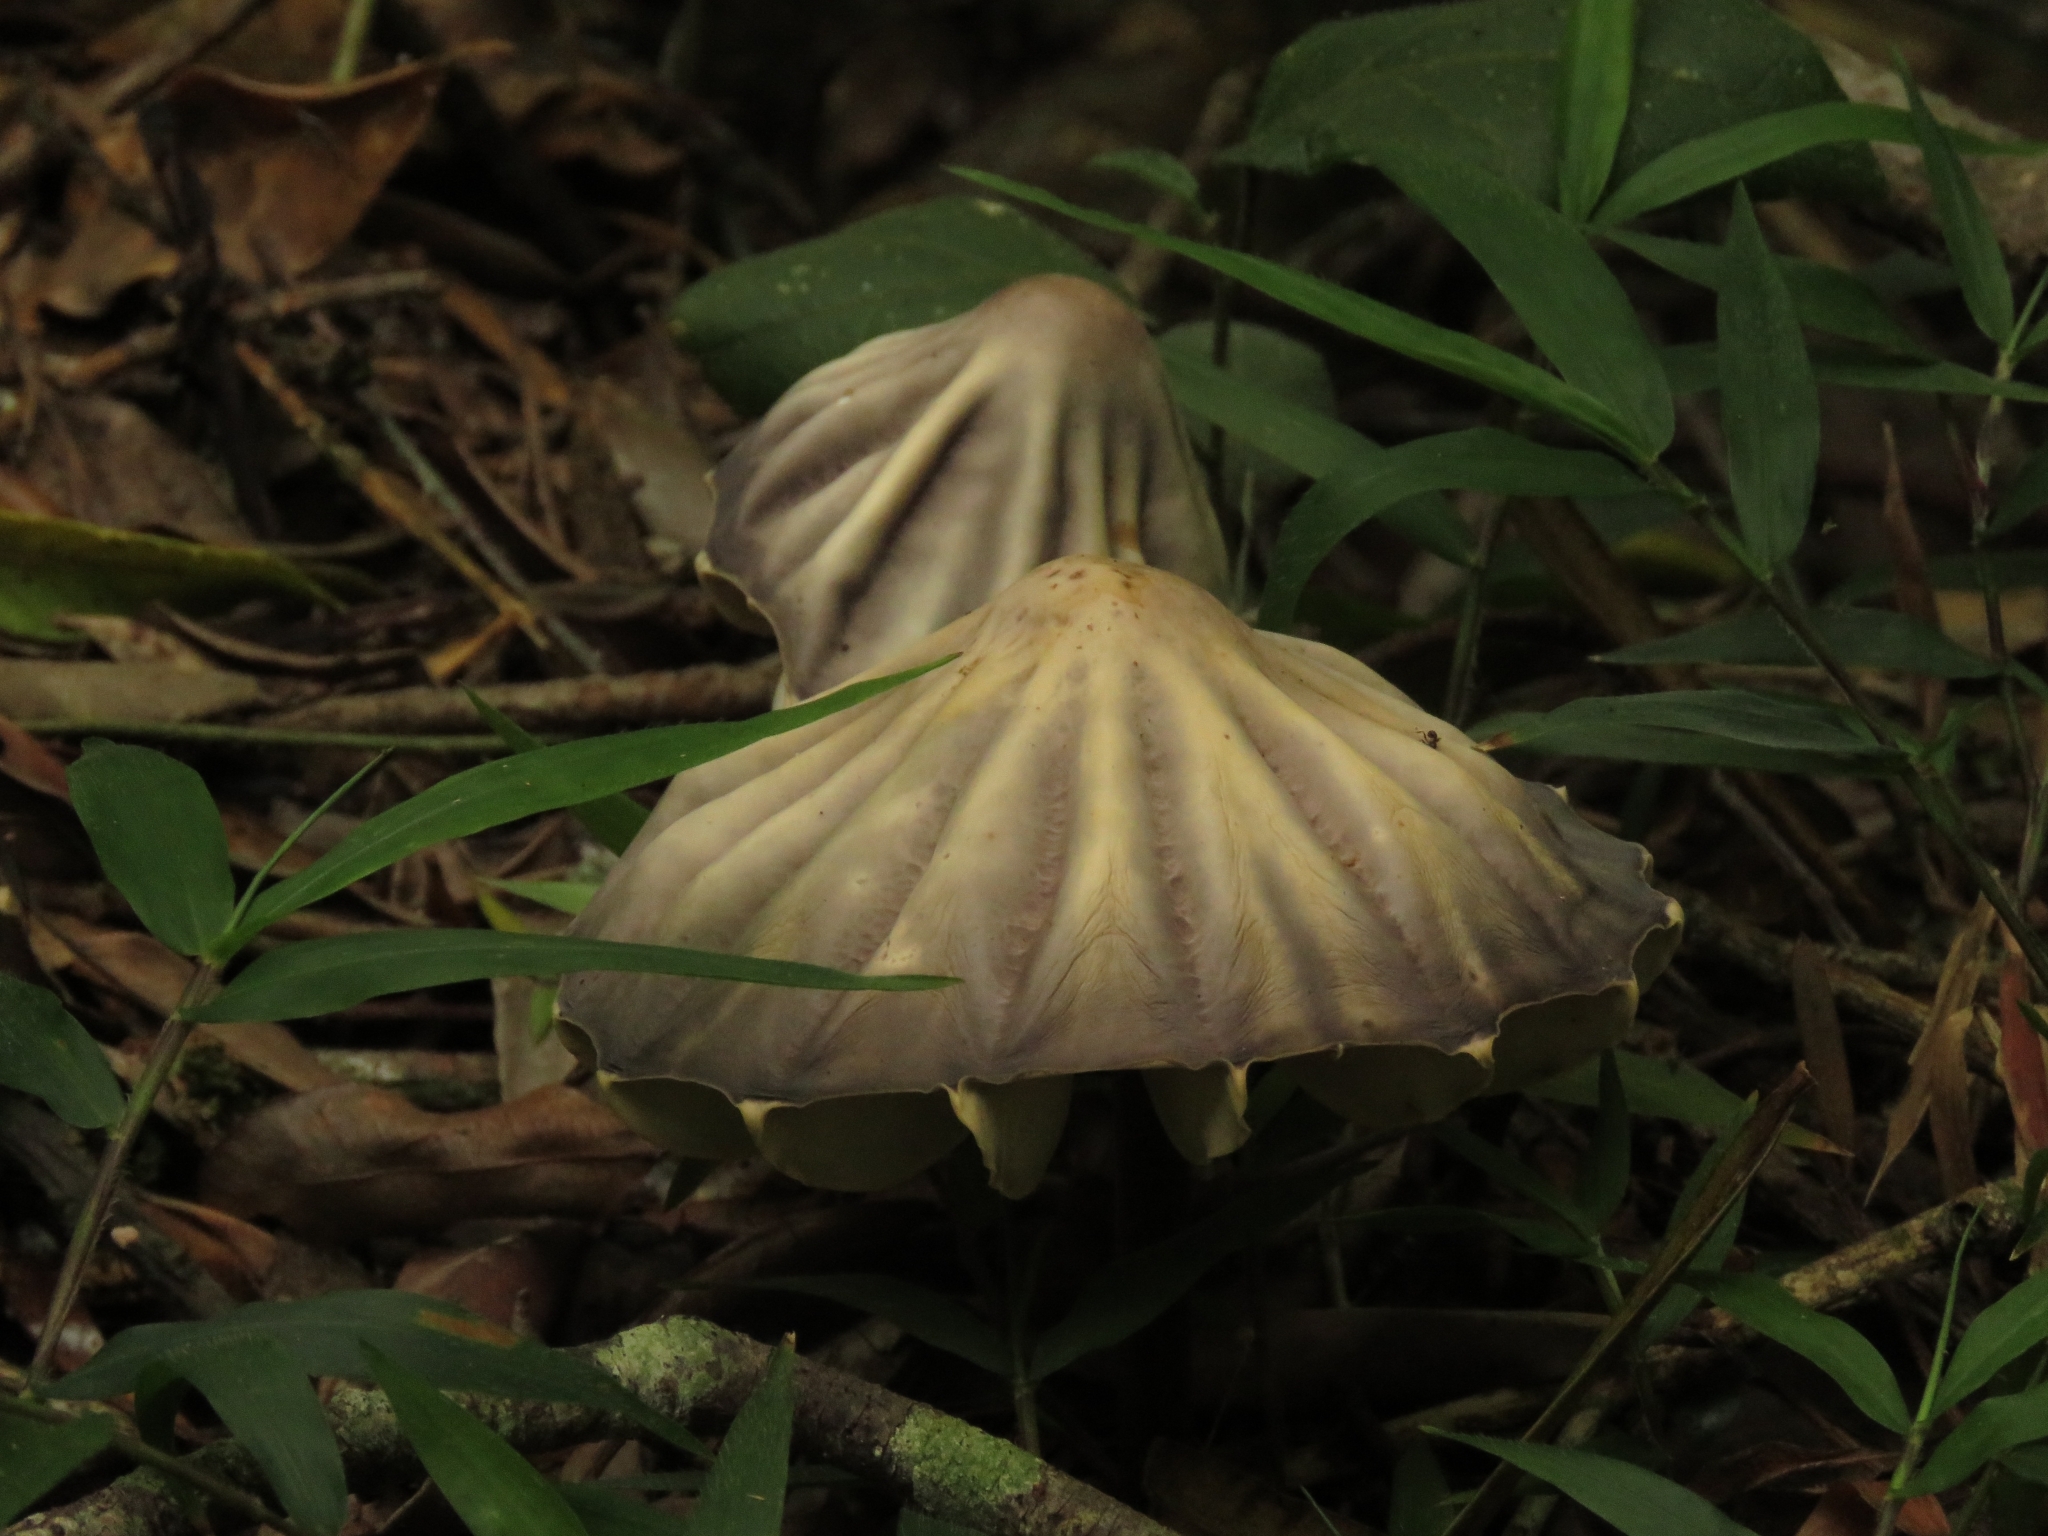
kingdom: Fungi
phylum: Basidiomycota
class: Agaricomycetes
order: Agaricales
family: Marasmiaceae
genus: Marasmius
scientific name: Marasmius bekolacongoli
